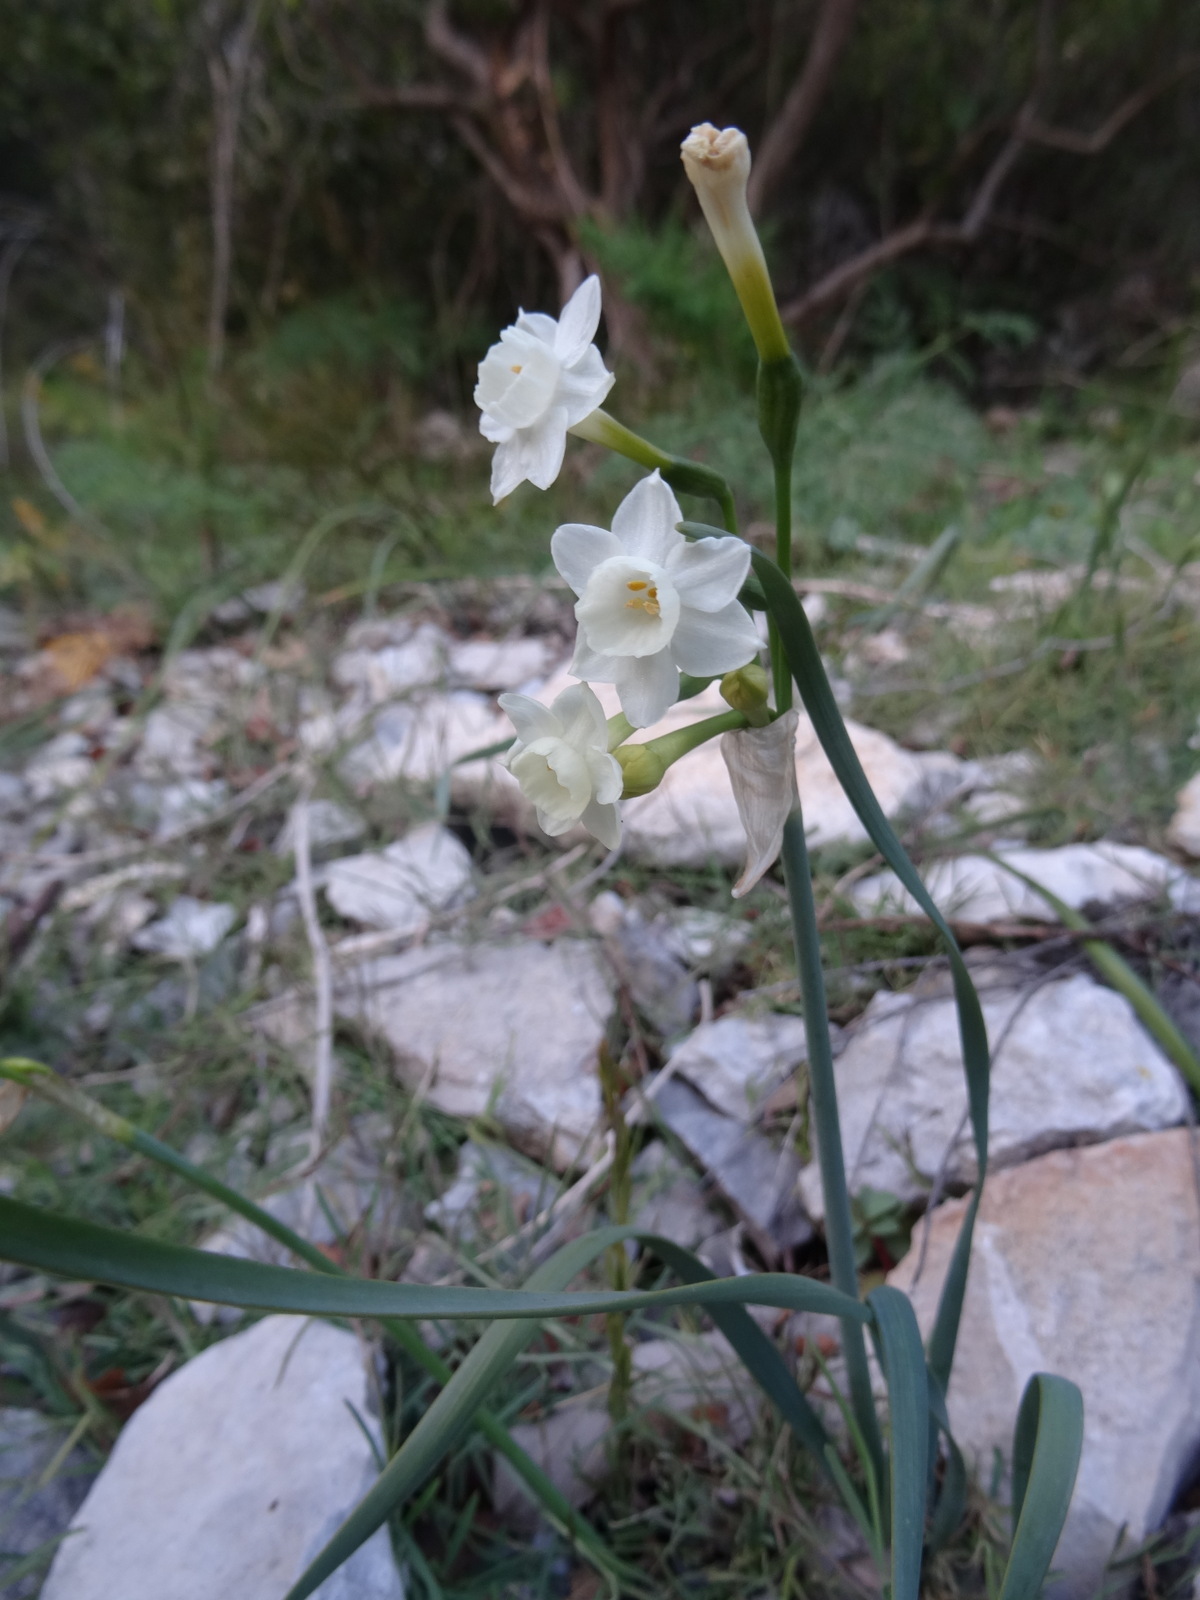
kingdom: Plantae
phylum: Tracheophyta
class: Liliopsida
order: Asparagales
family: Amaryllidaceae
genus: Narcissus
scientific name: Narcissus dubius
